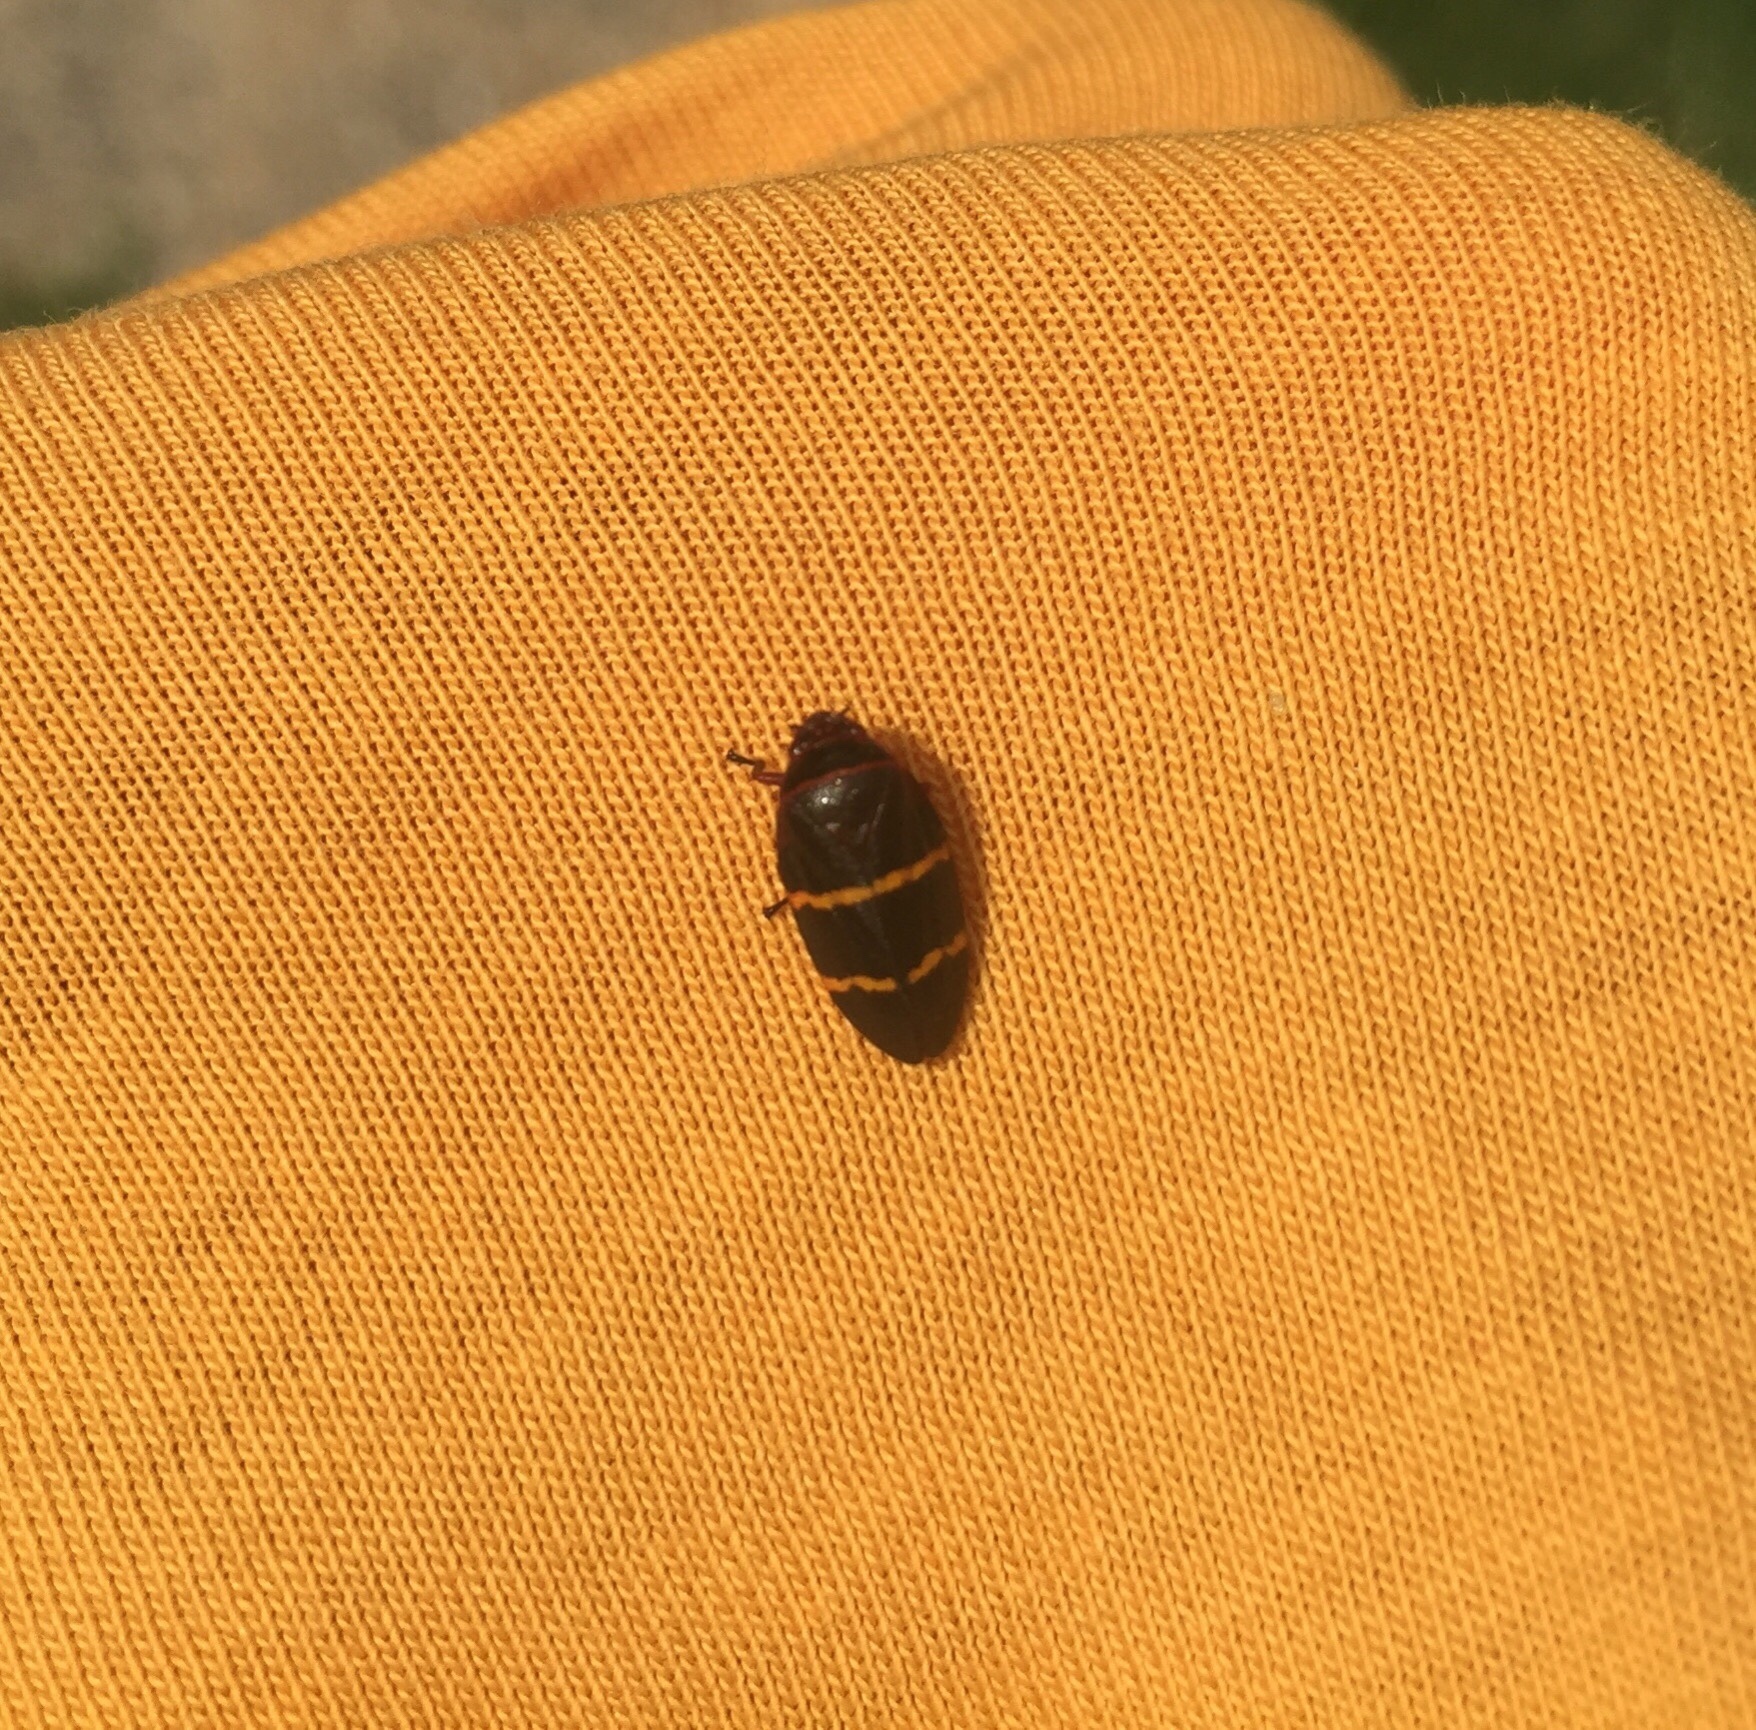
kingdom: Animalia
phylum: Arthropoda
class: Insecta
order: Hemiptera
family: Cercopidae
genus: Prosapia
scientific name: Prosapia bicincta
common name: Twolined spittlebug
